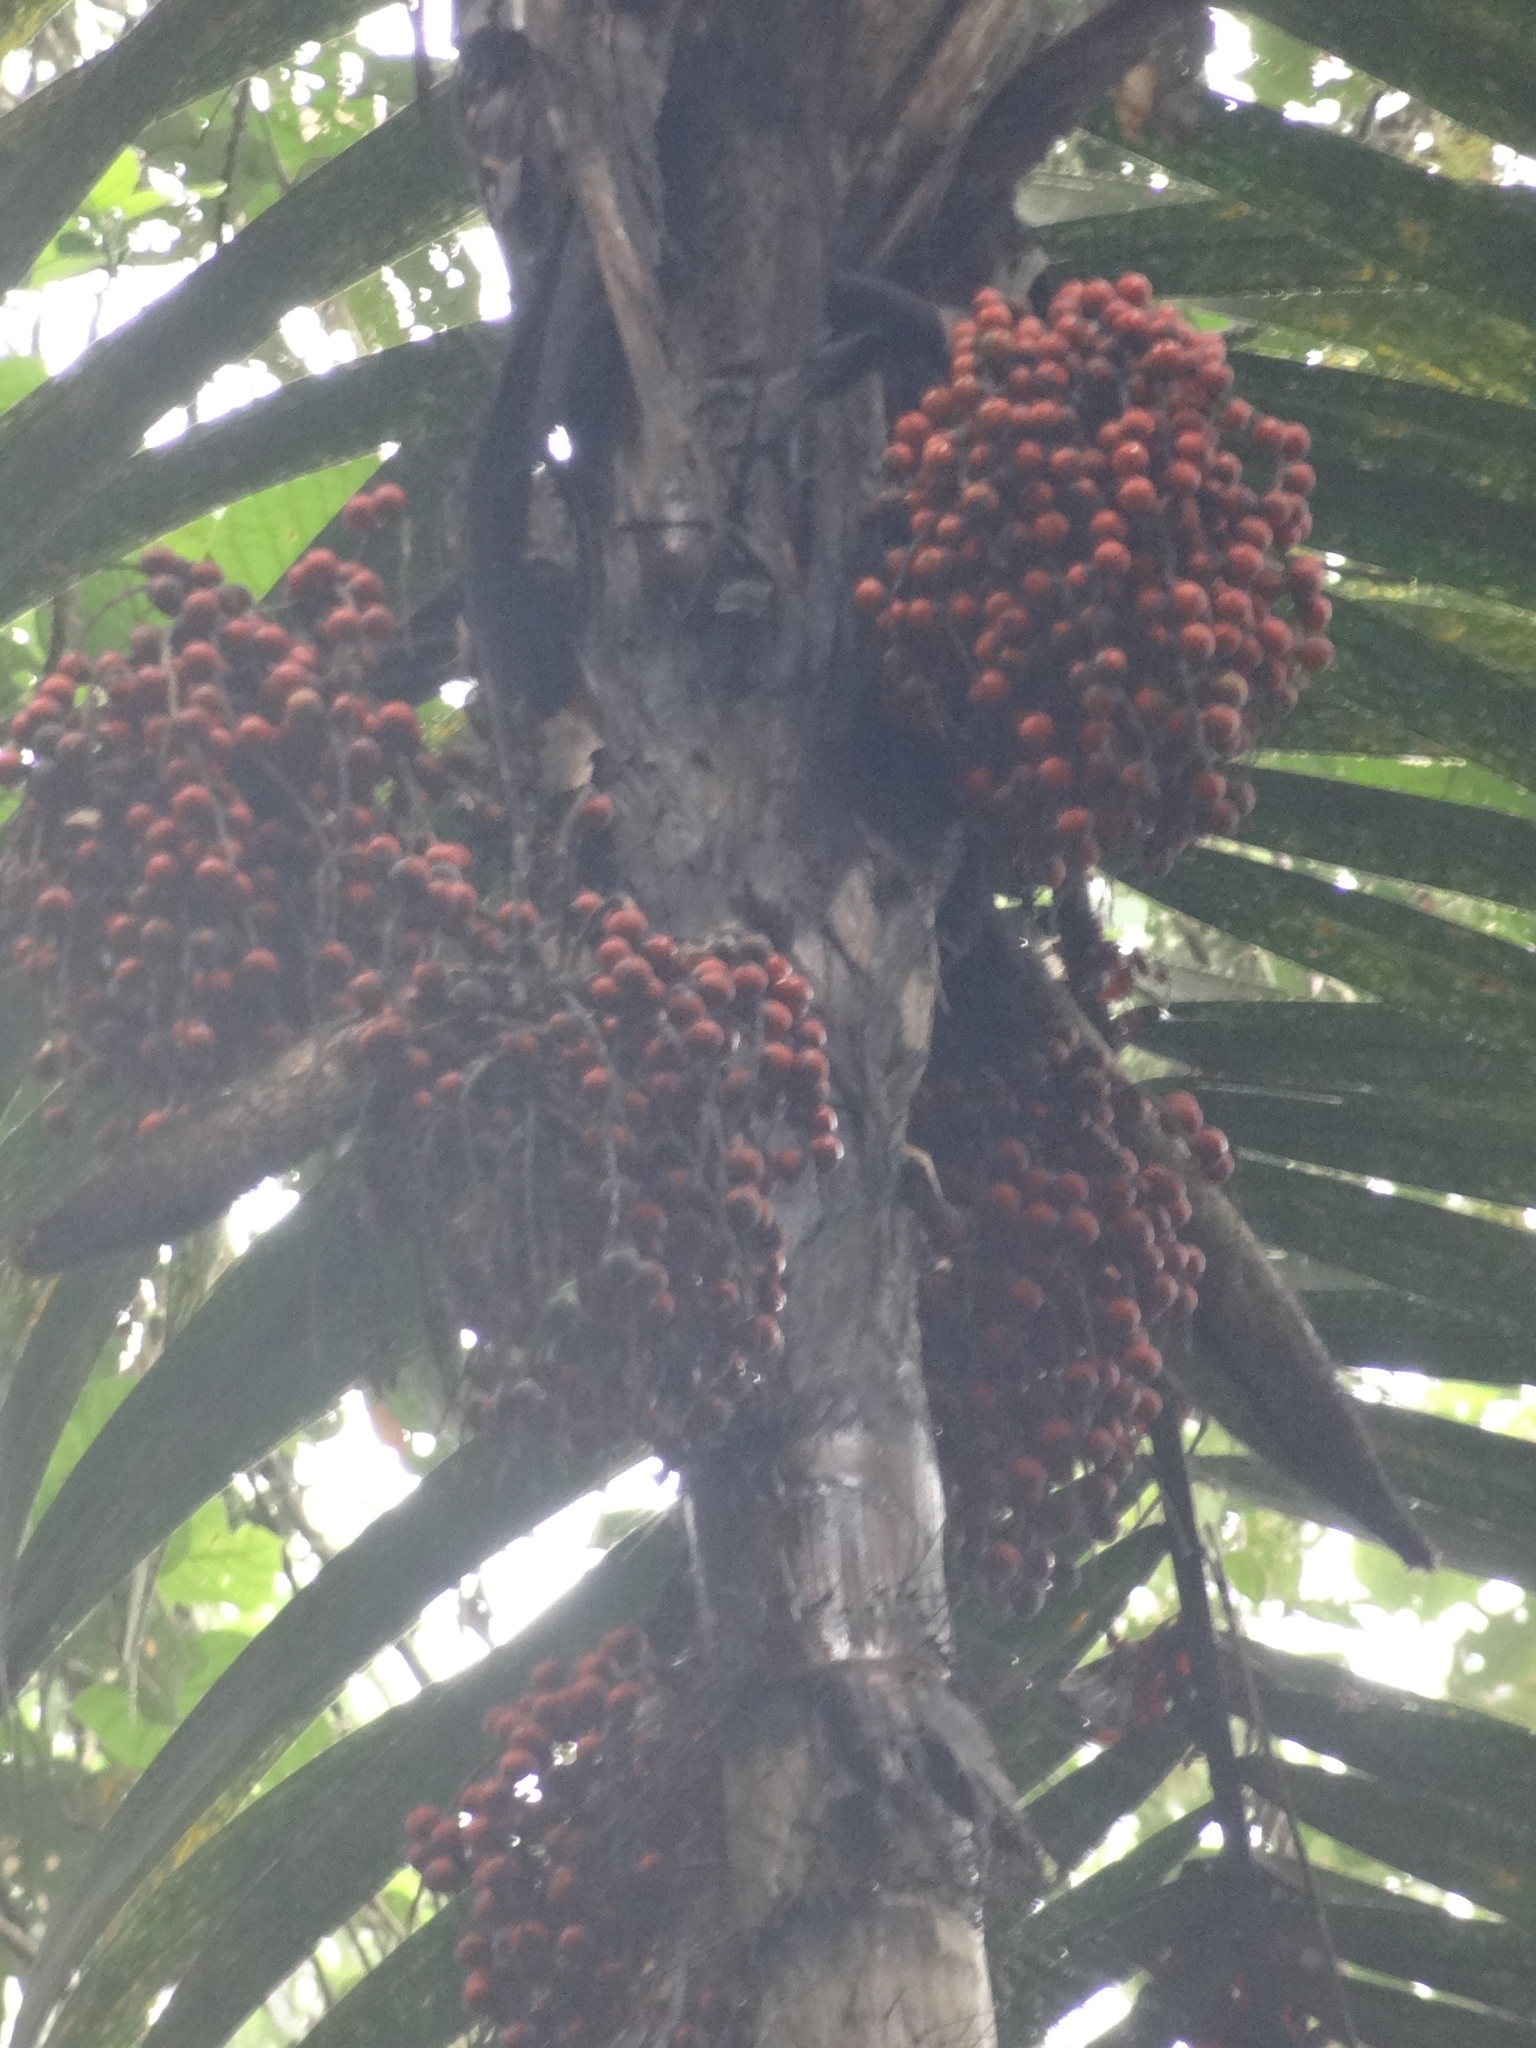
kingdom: Plantae
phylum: Tracheophyta
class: Liliopsida
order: Arecales
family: Arecaceae
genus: Bactris
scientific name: Bactris gasipaes
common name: Peach palm
